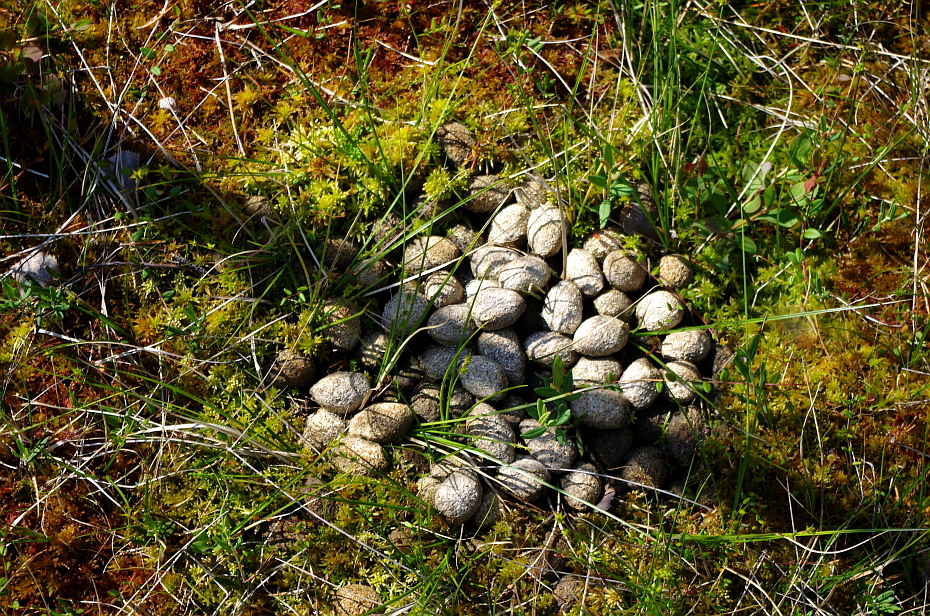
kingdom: Animalia
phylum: Chordata
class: Mammalia
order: Artiodactyla
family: Cervidae
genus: Alces
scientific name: Alces alces
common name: Moose
